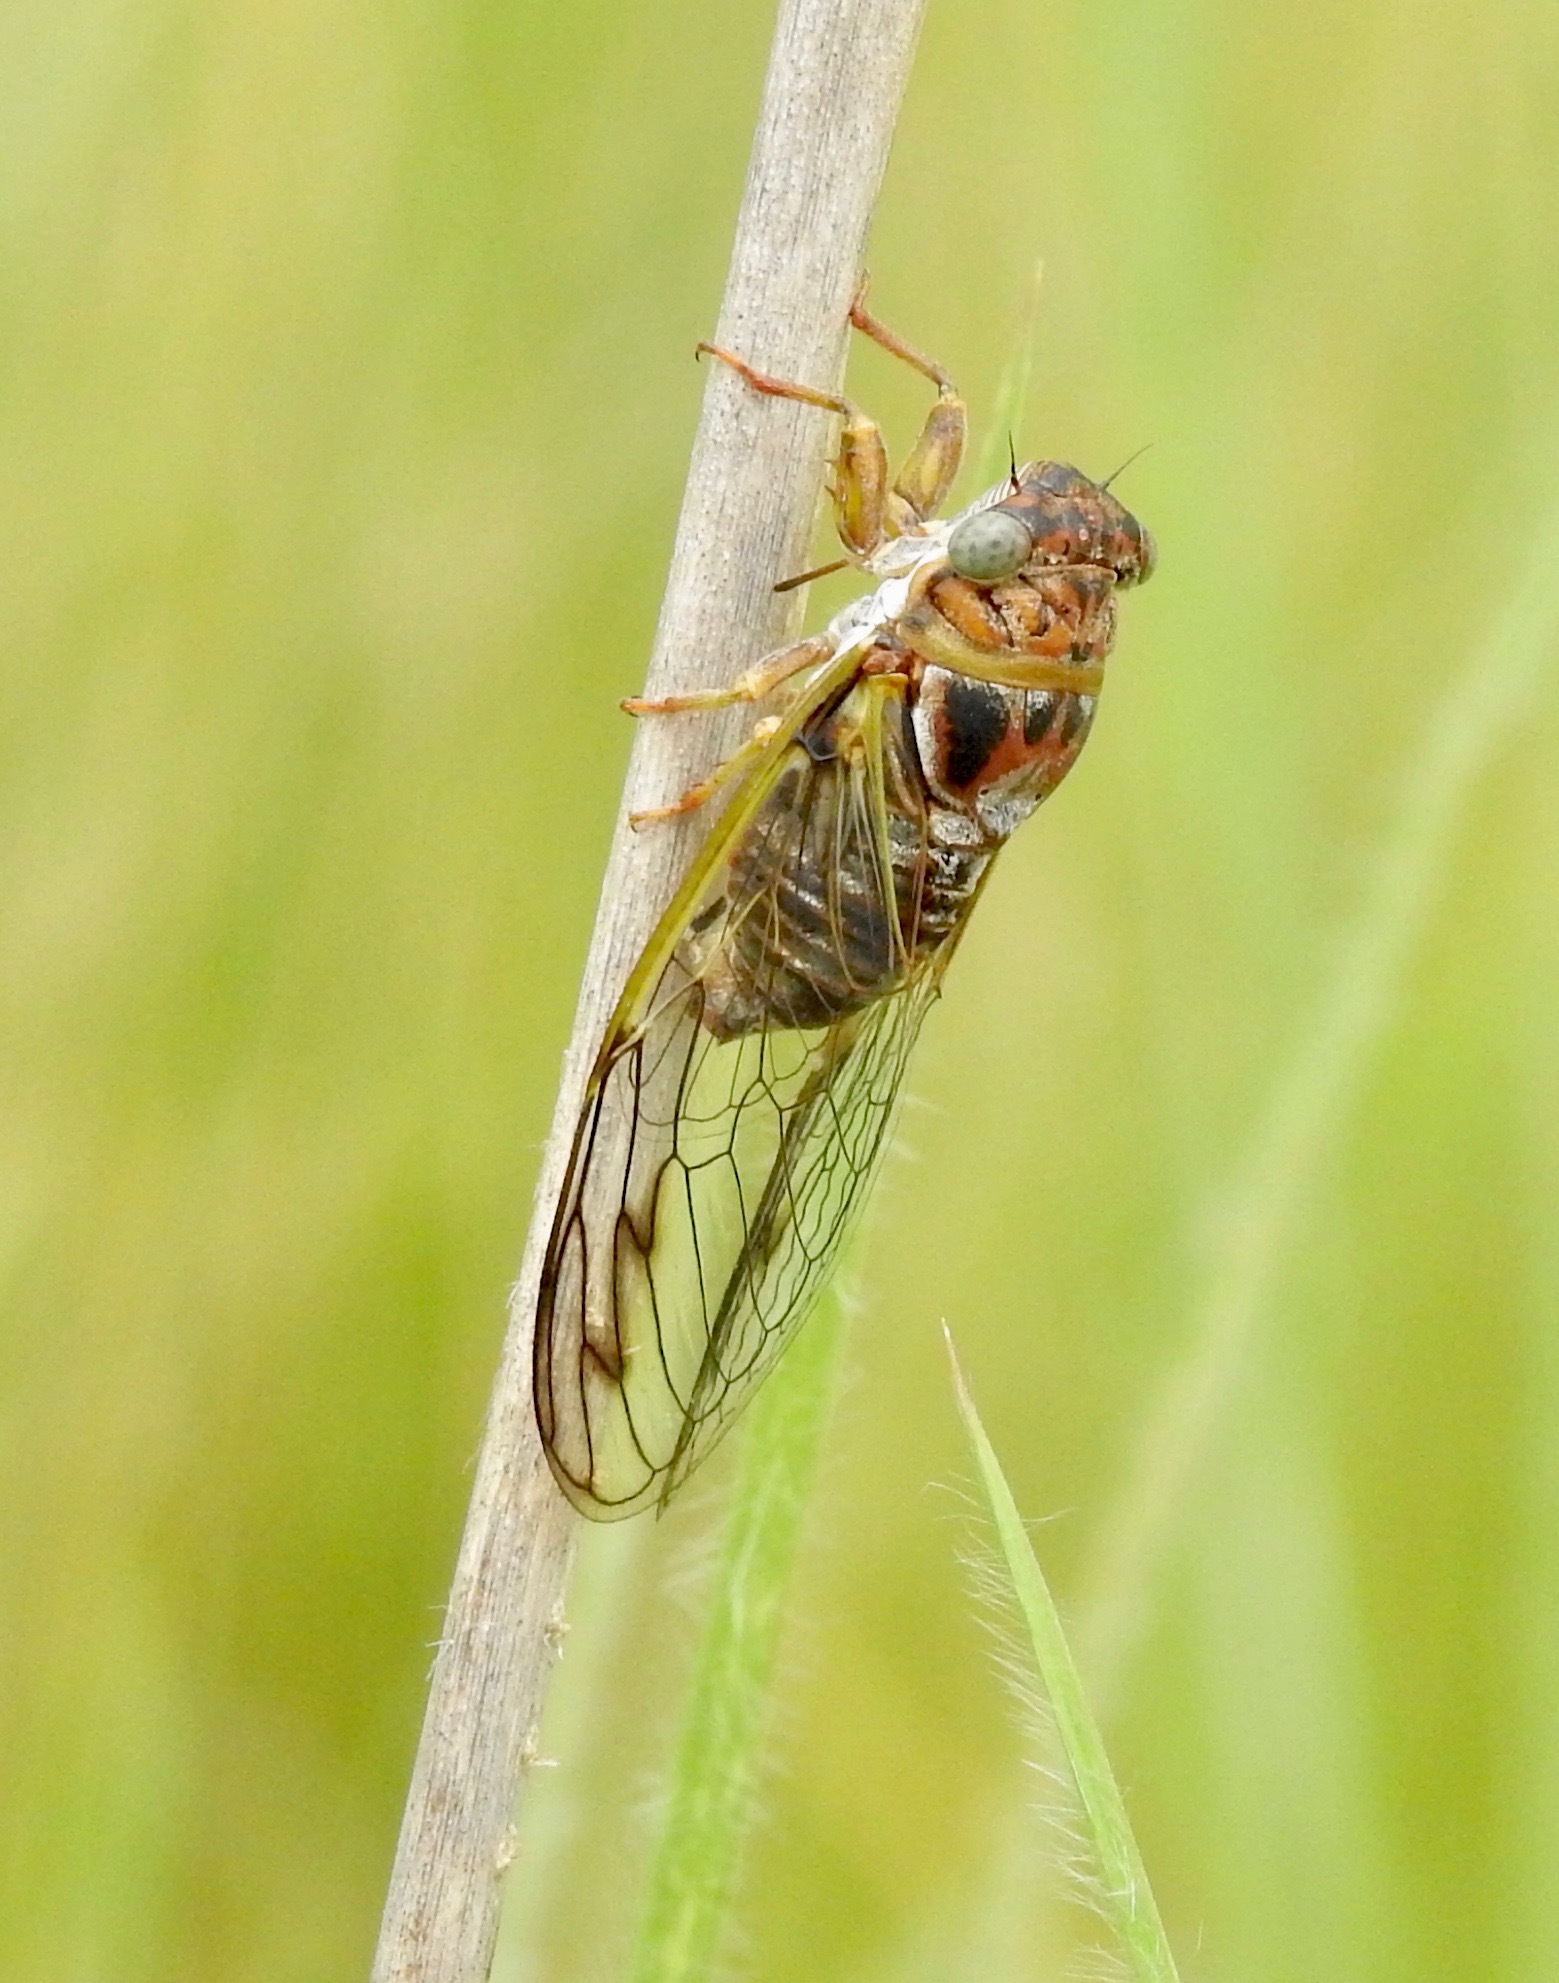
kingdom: Animalia
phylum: Arthropoda
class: Insecta
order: Hemiptera
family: Cicadidae
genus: Diceroprocta
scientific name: Diceroprocta olympusa
